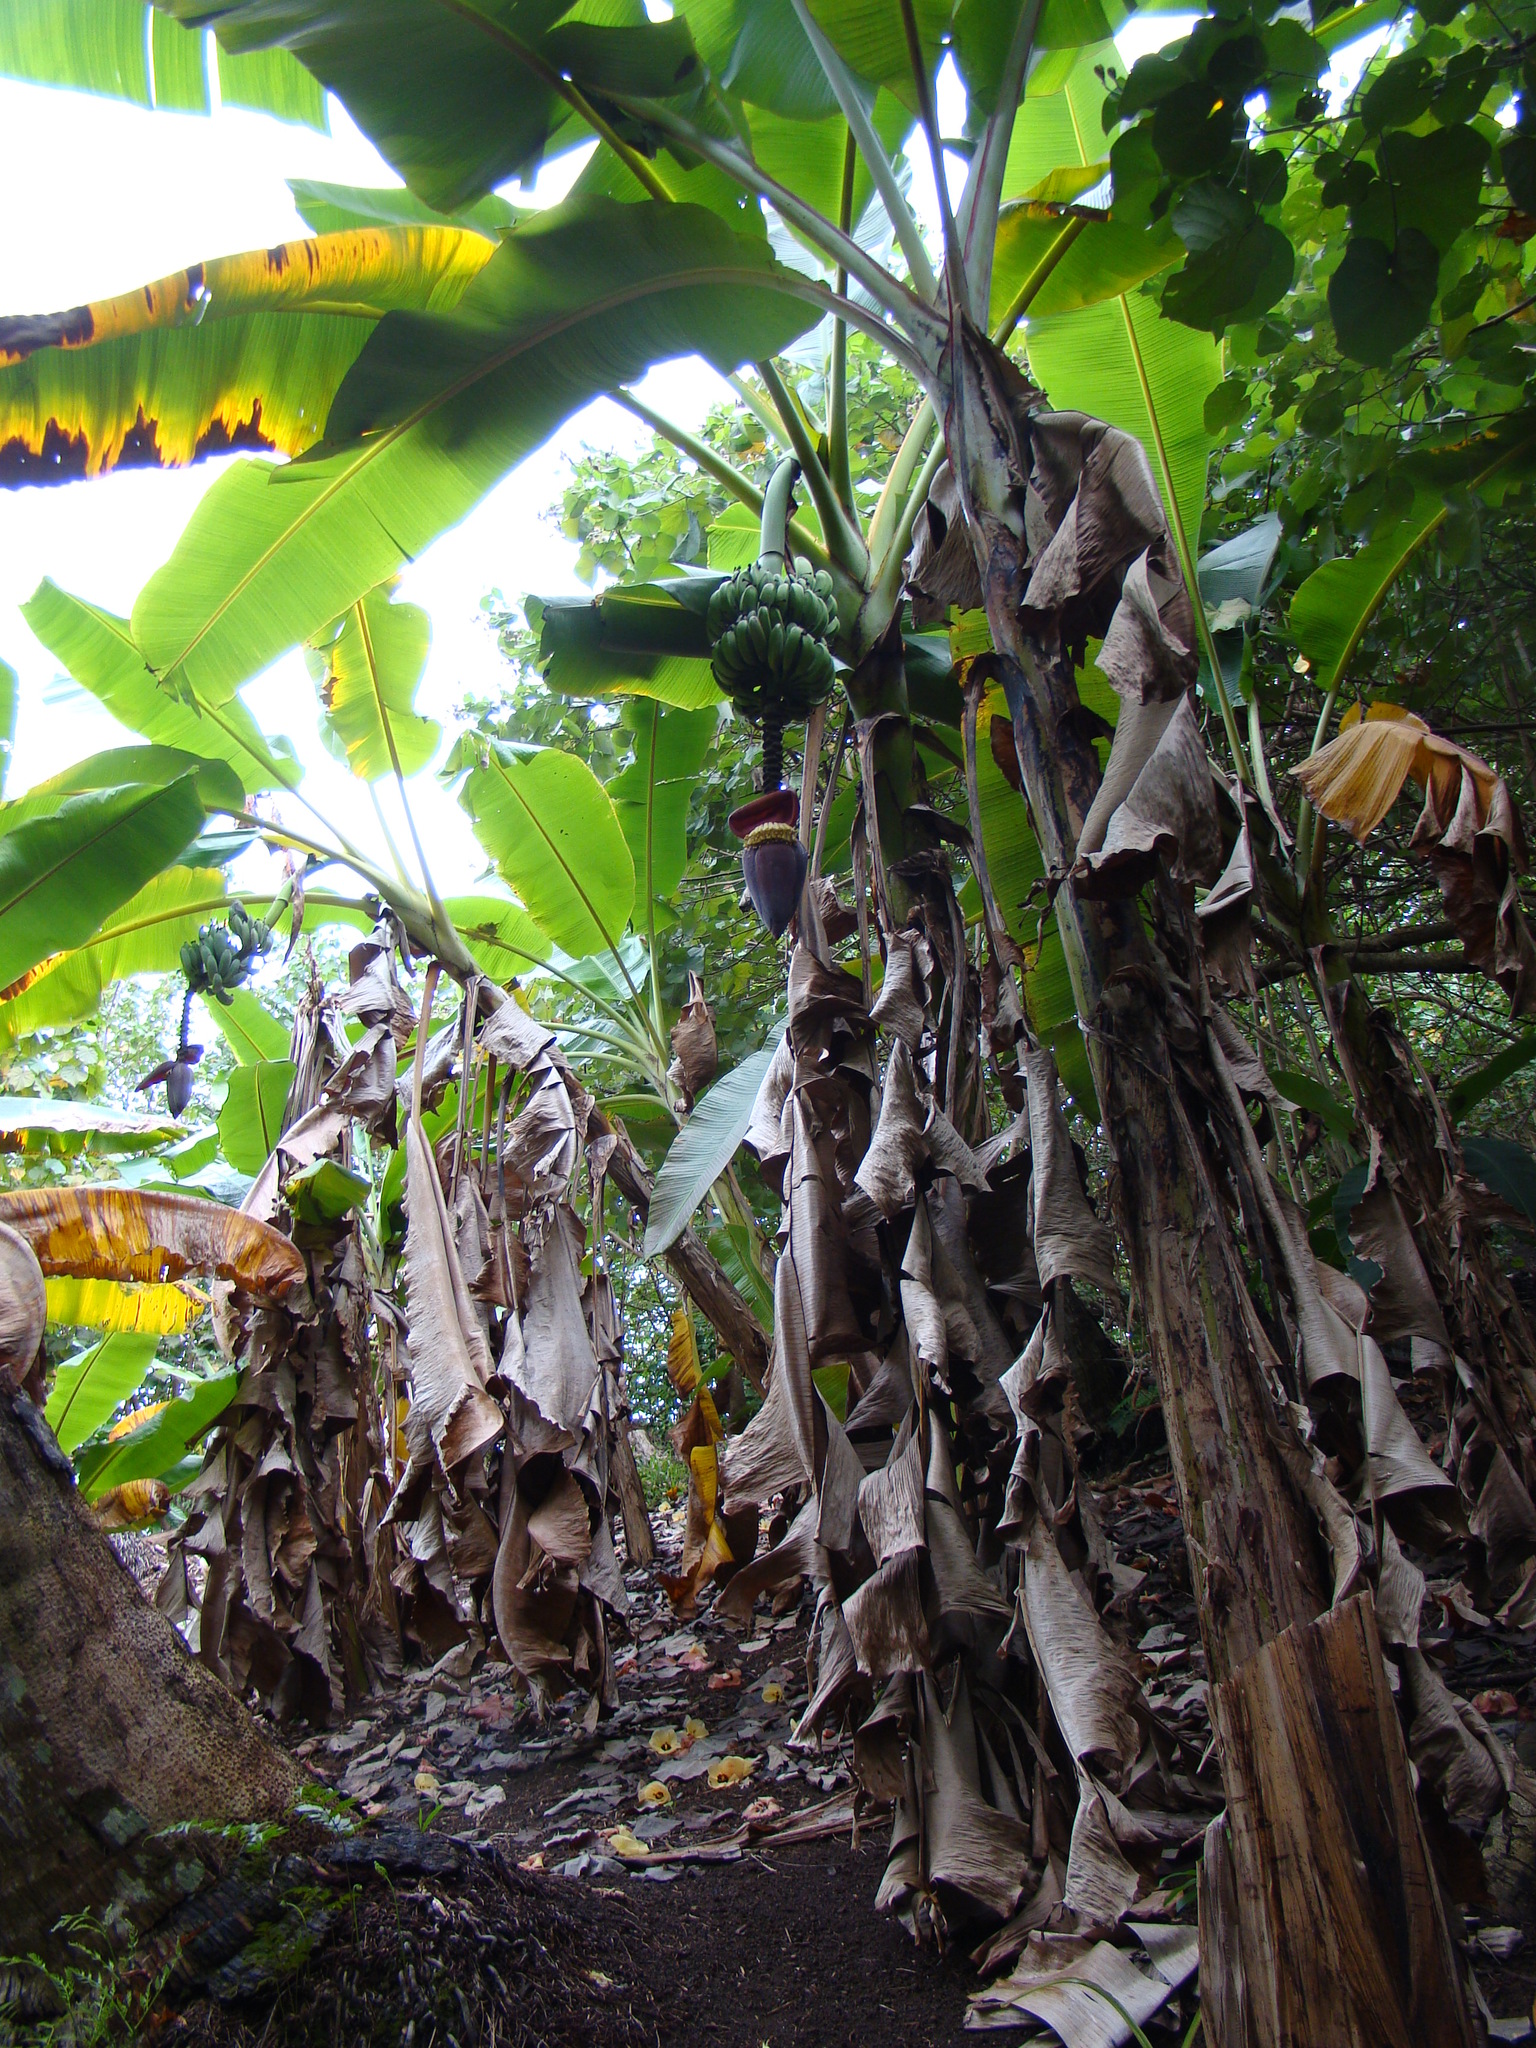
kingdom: Plantae
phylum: Tracheophyta
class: Liliopsida
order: Zingiberales
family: Musaceae
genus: Musa
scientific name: Musa paradisiaca
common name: French plantain
